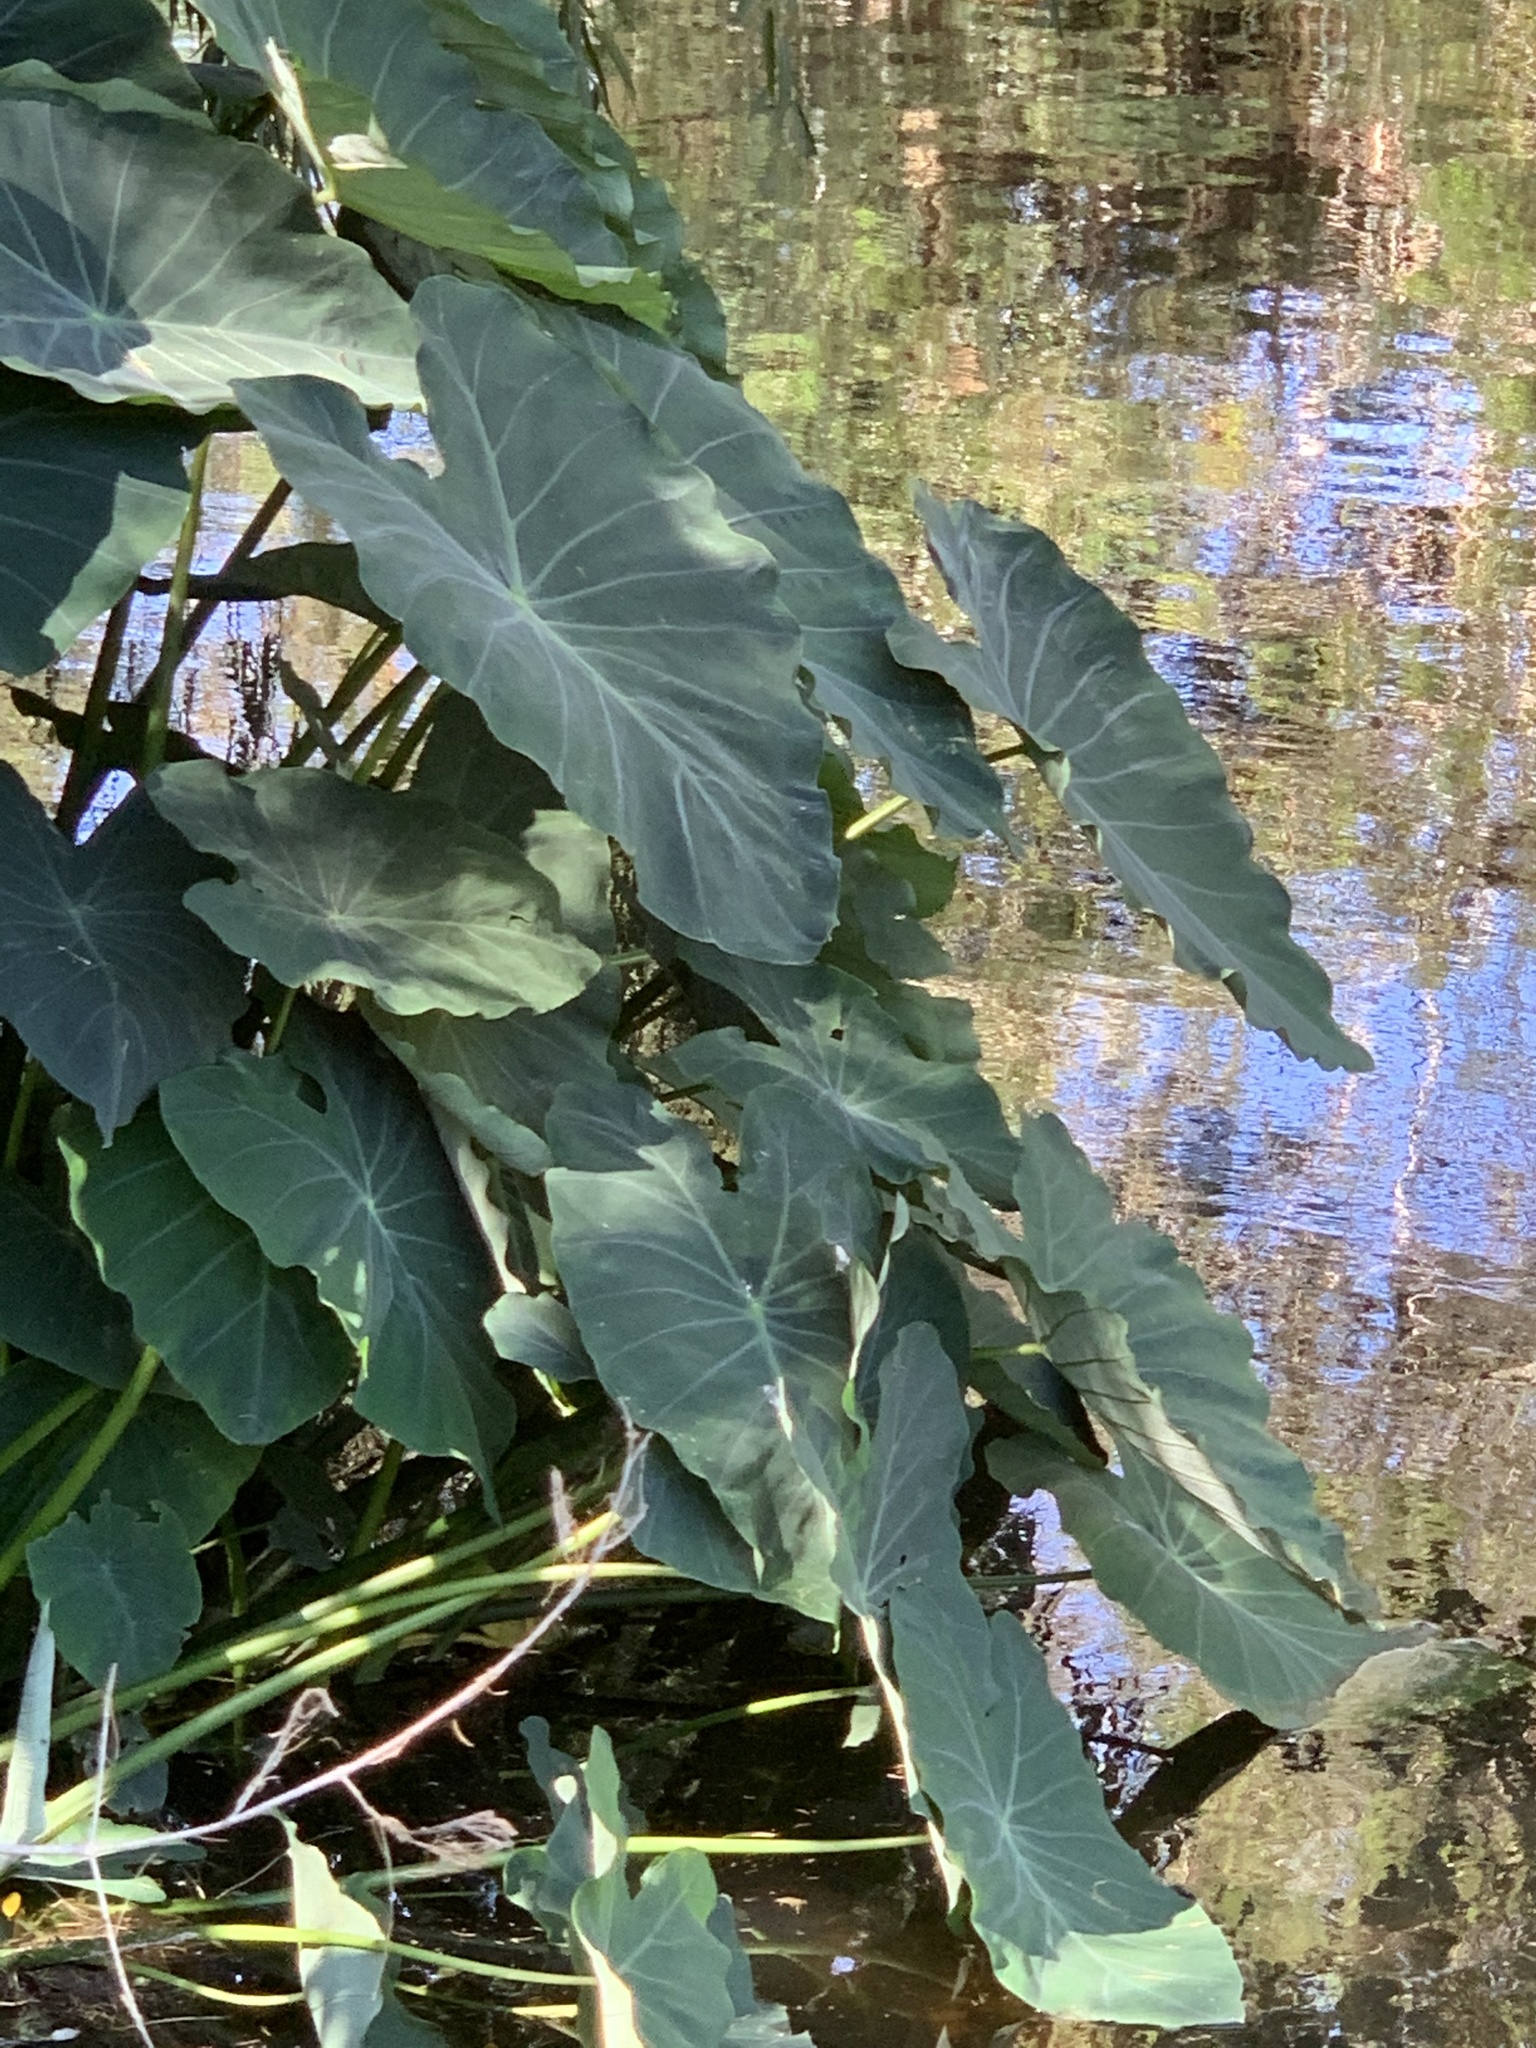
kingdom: Plantae
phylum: Tracheophyta
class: Liliopsida
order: Alismatales
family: Araceae
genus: Colocasia
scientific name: Colocasia esculenta
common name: Taro
